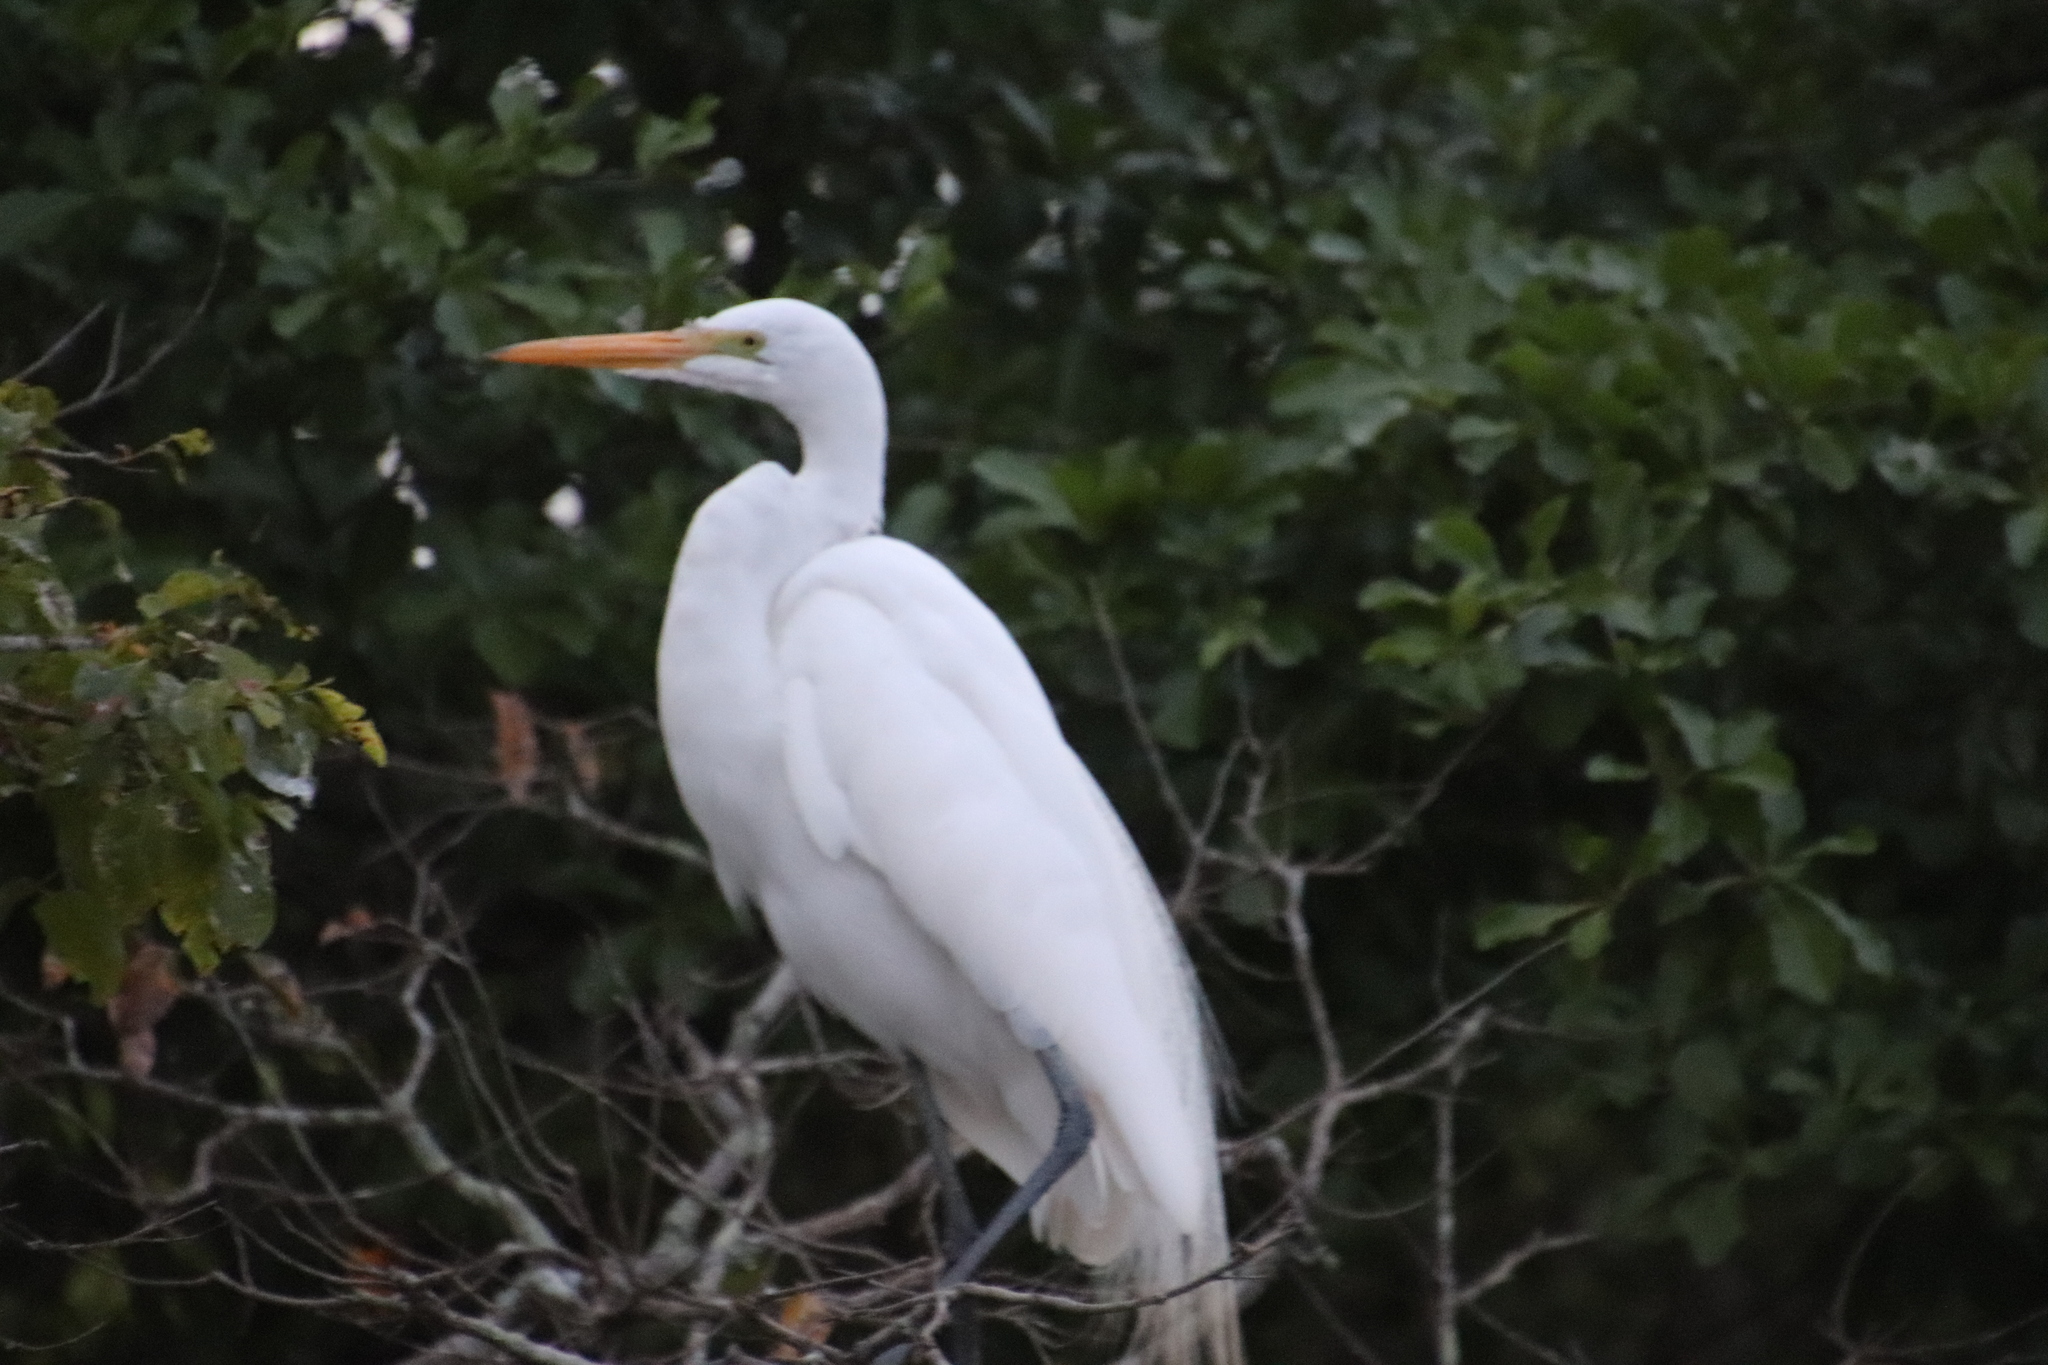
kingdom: Animalia
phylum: Chordata
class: Aves
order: Pelecaniformes
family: Ardeidae
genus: Ardea
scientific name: Ardea alba
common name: Great egret
